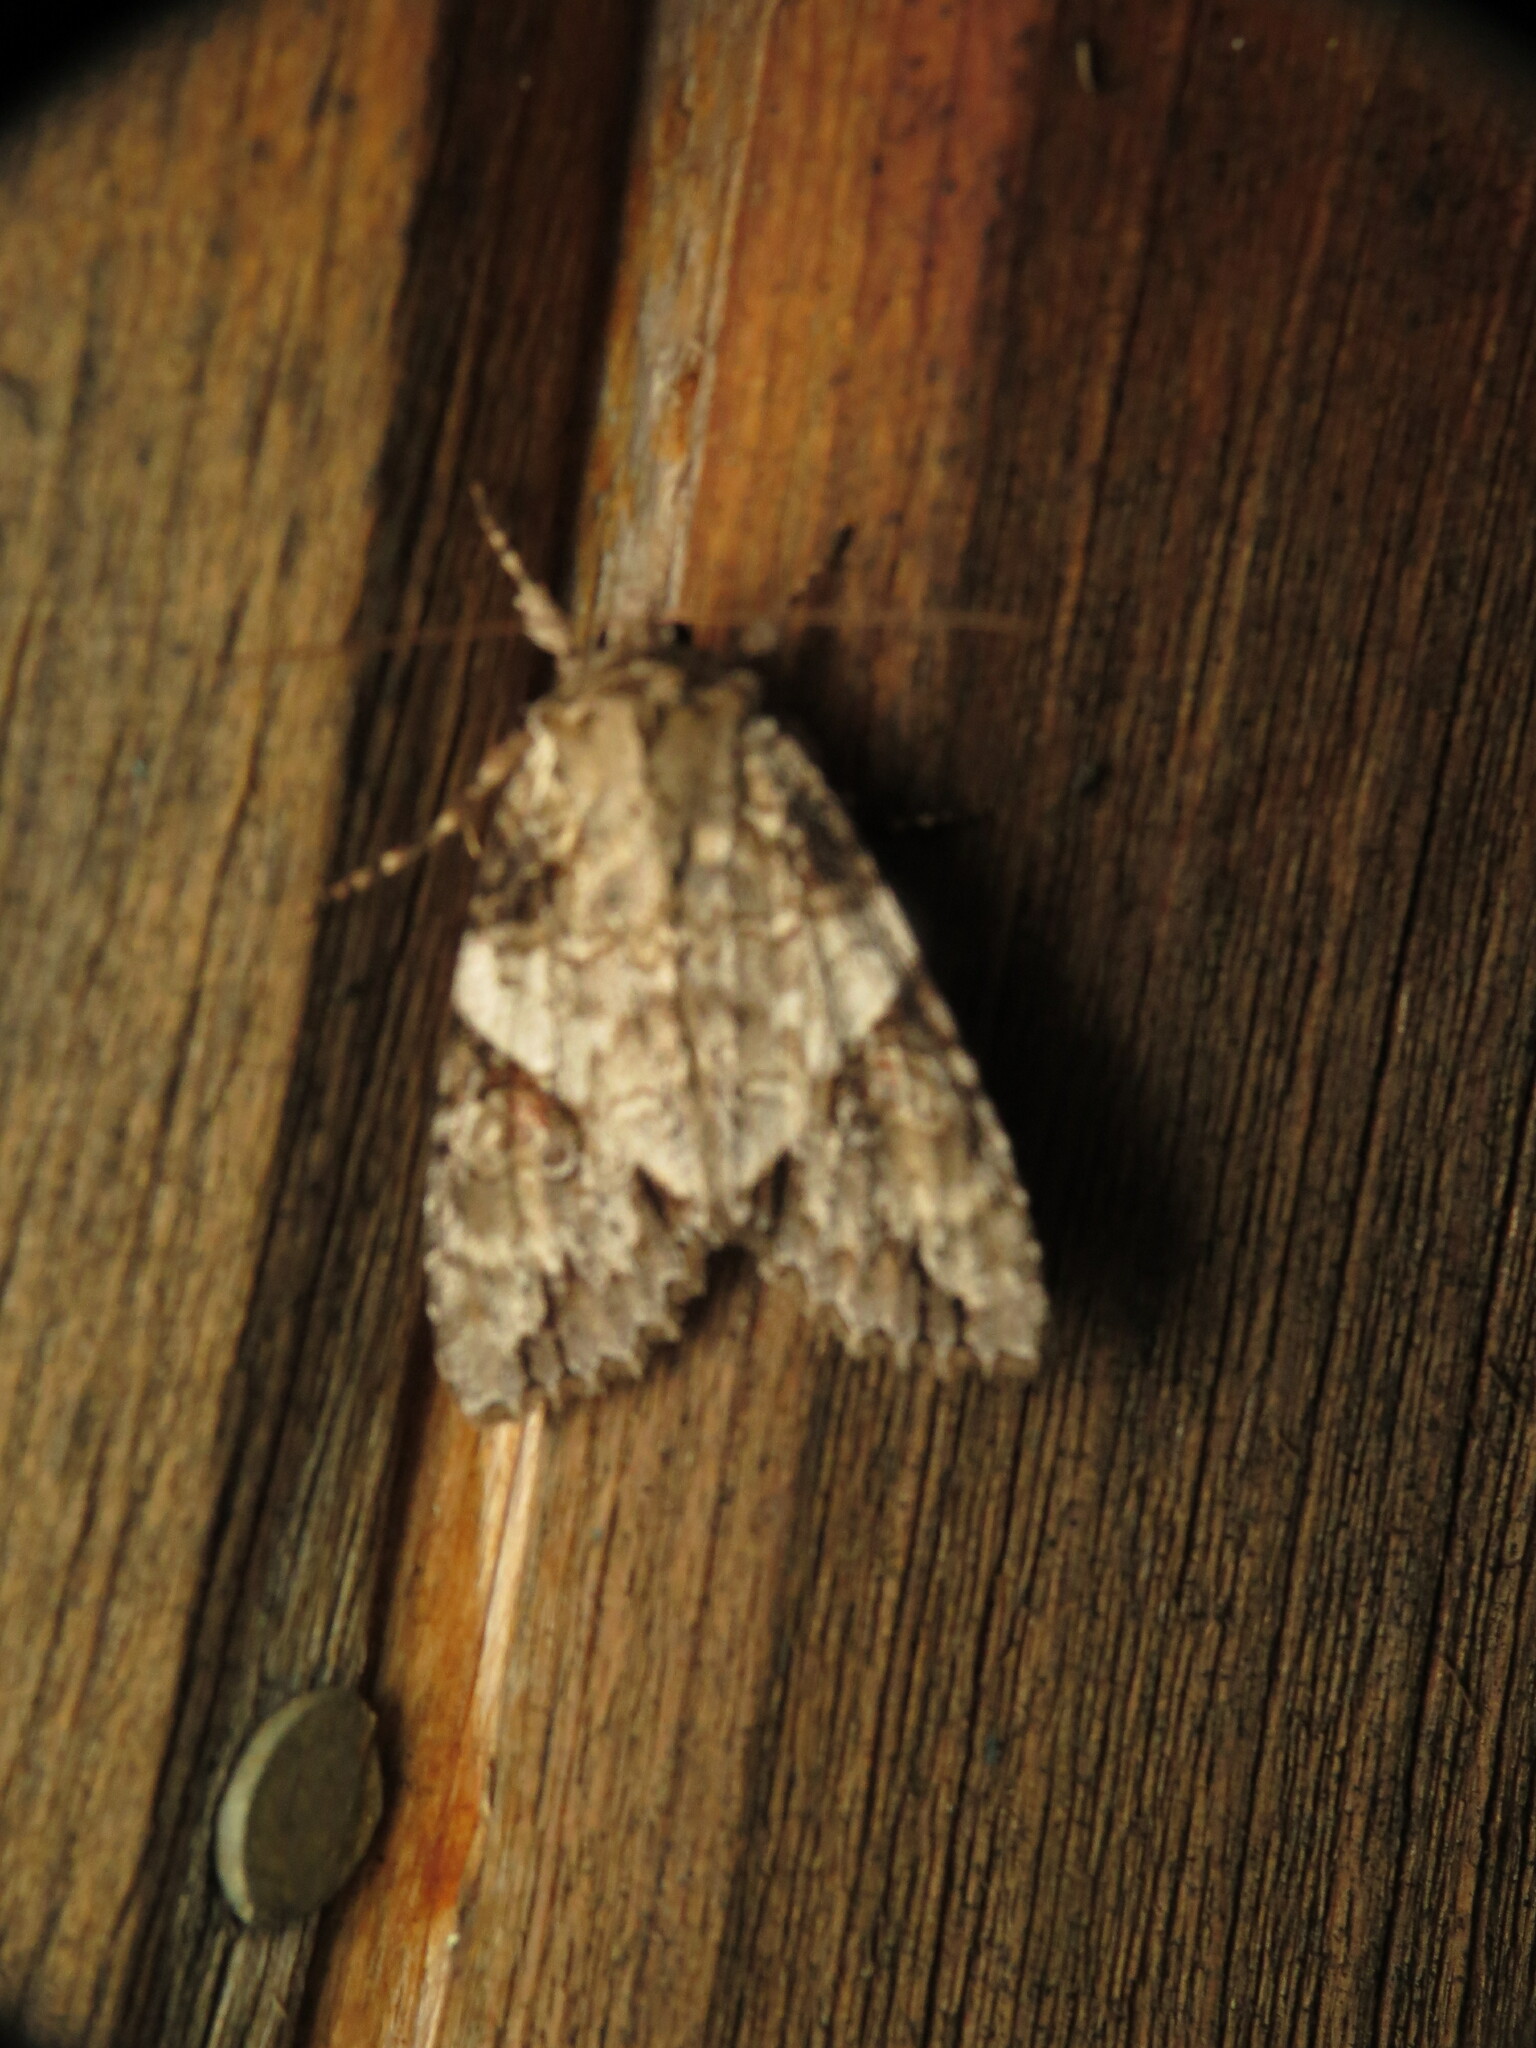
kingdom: Animalia
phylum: Arthropoda
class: Insecta
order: Lepidoptera
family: Noctuidae
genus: Achatia
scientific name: Achatia latex
